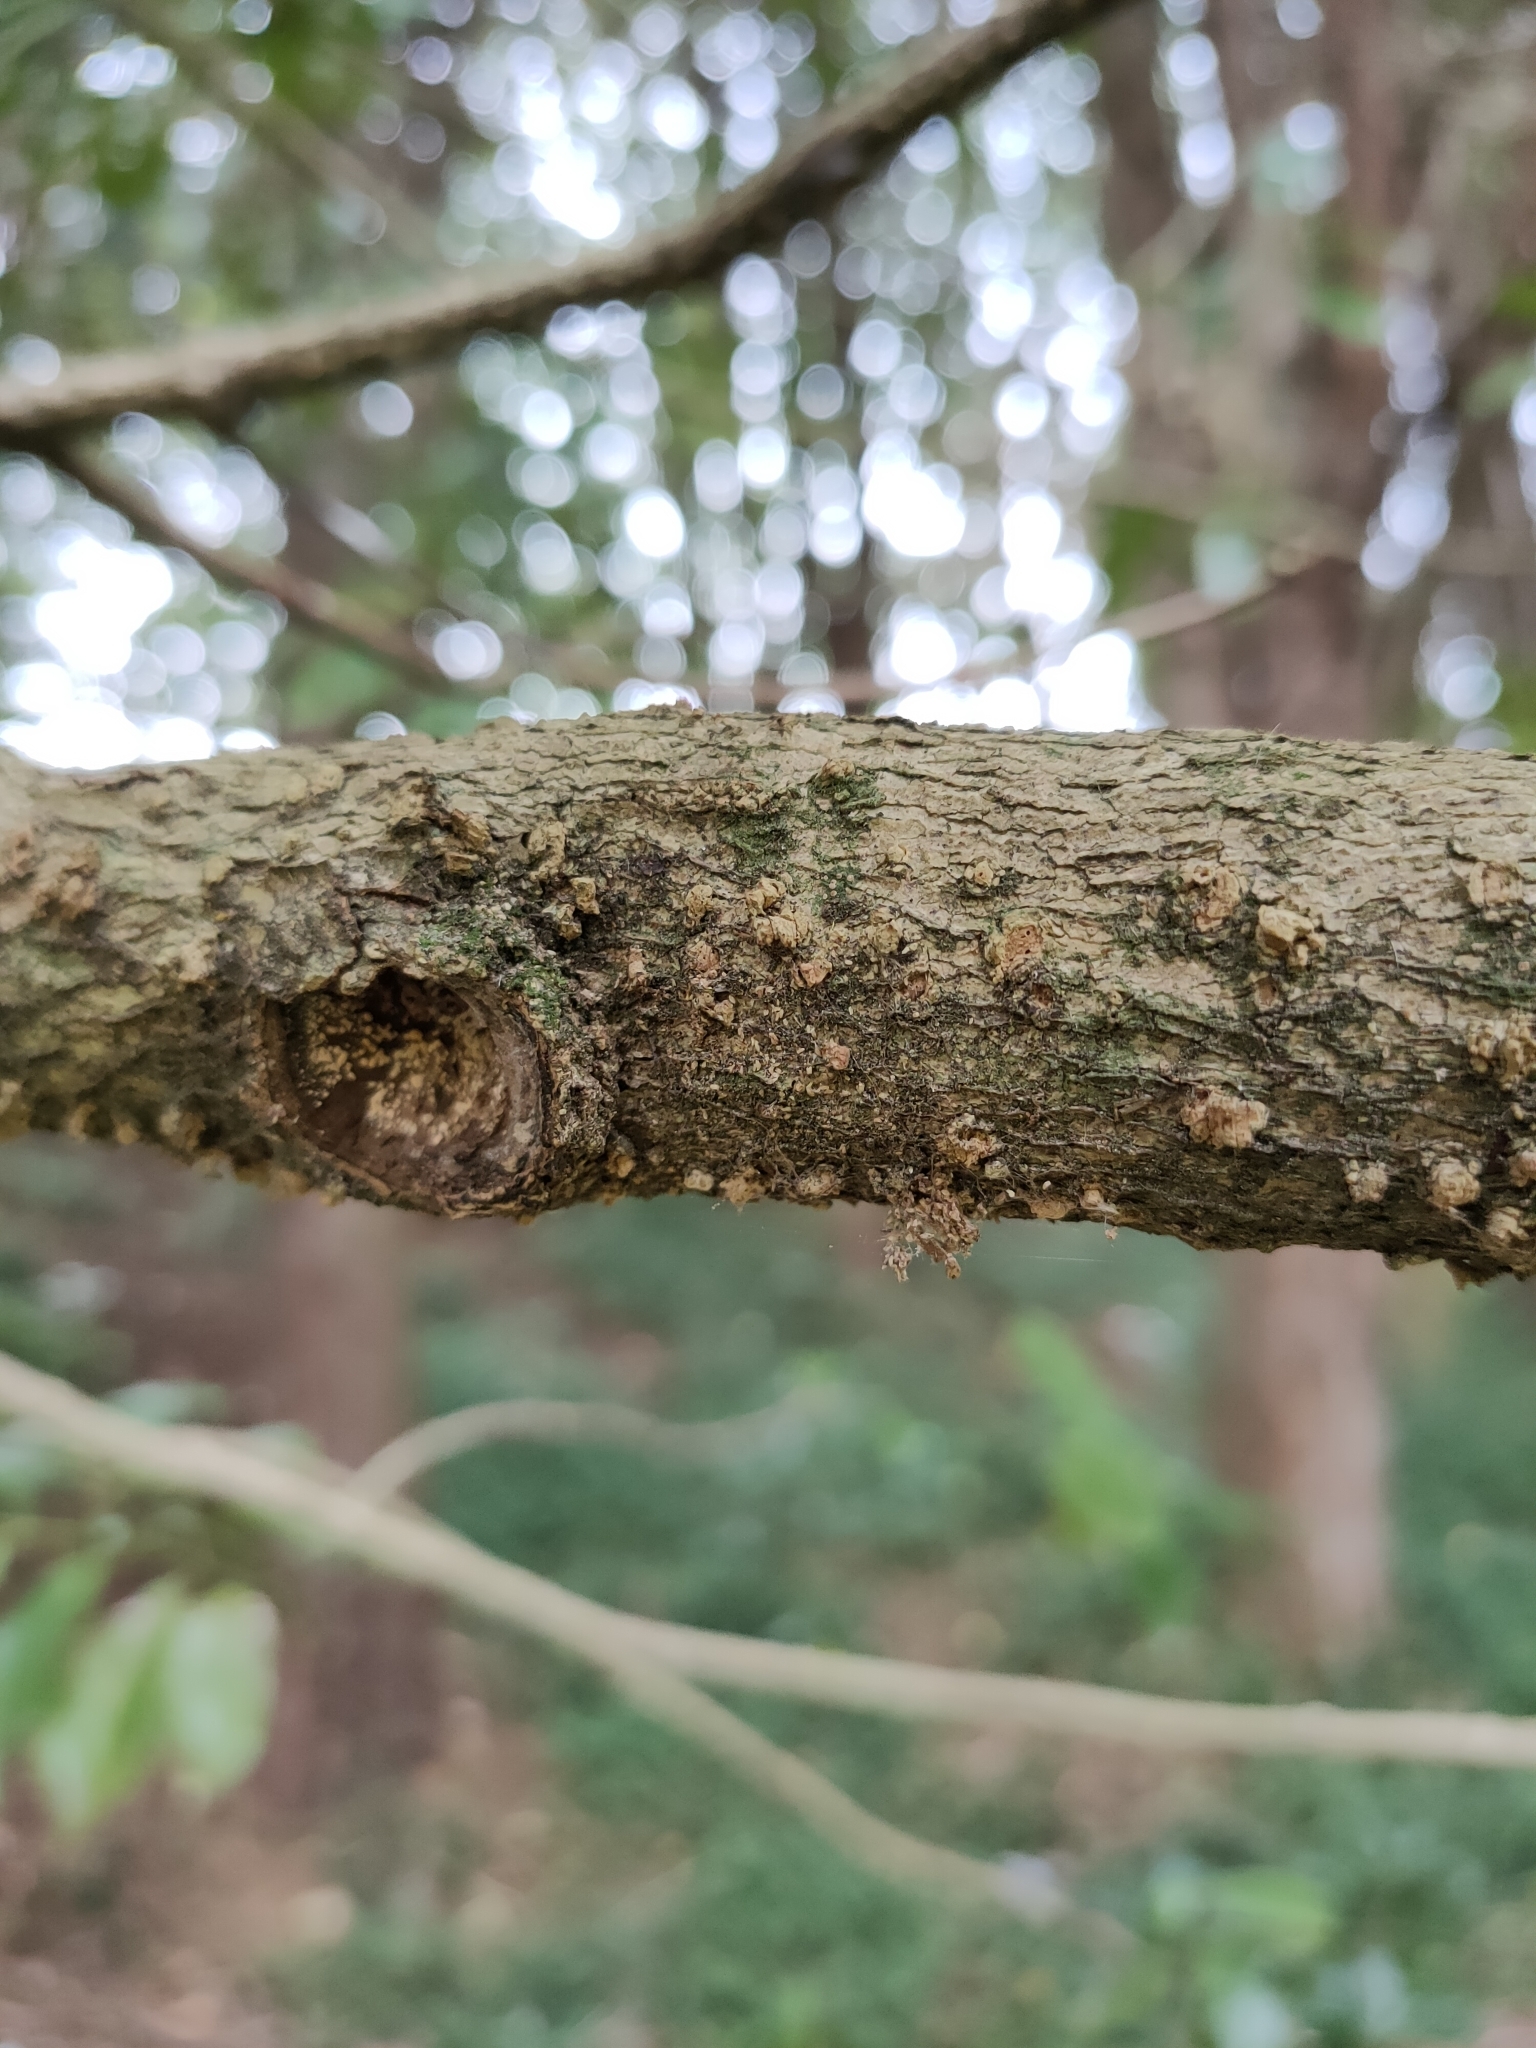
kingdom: Plantae
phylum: Tracheophyta
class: Magnoliopsida
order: Laurales
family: Atherospermataceae
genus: Laurelia
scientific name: Laurelia novae-zelandiae
